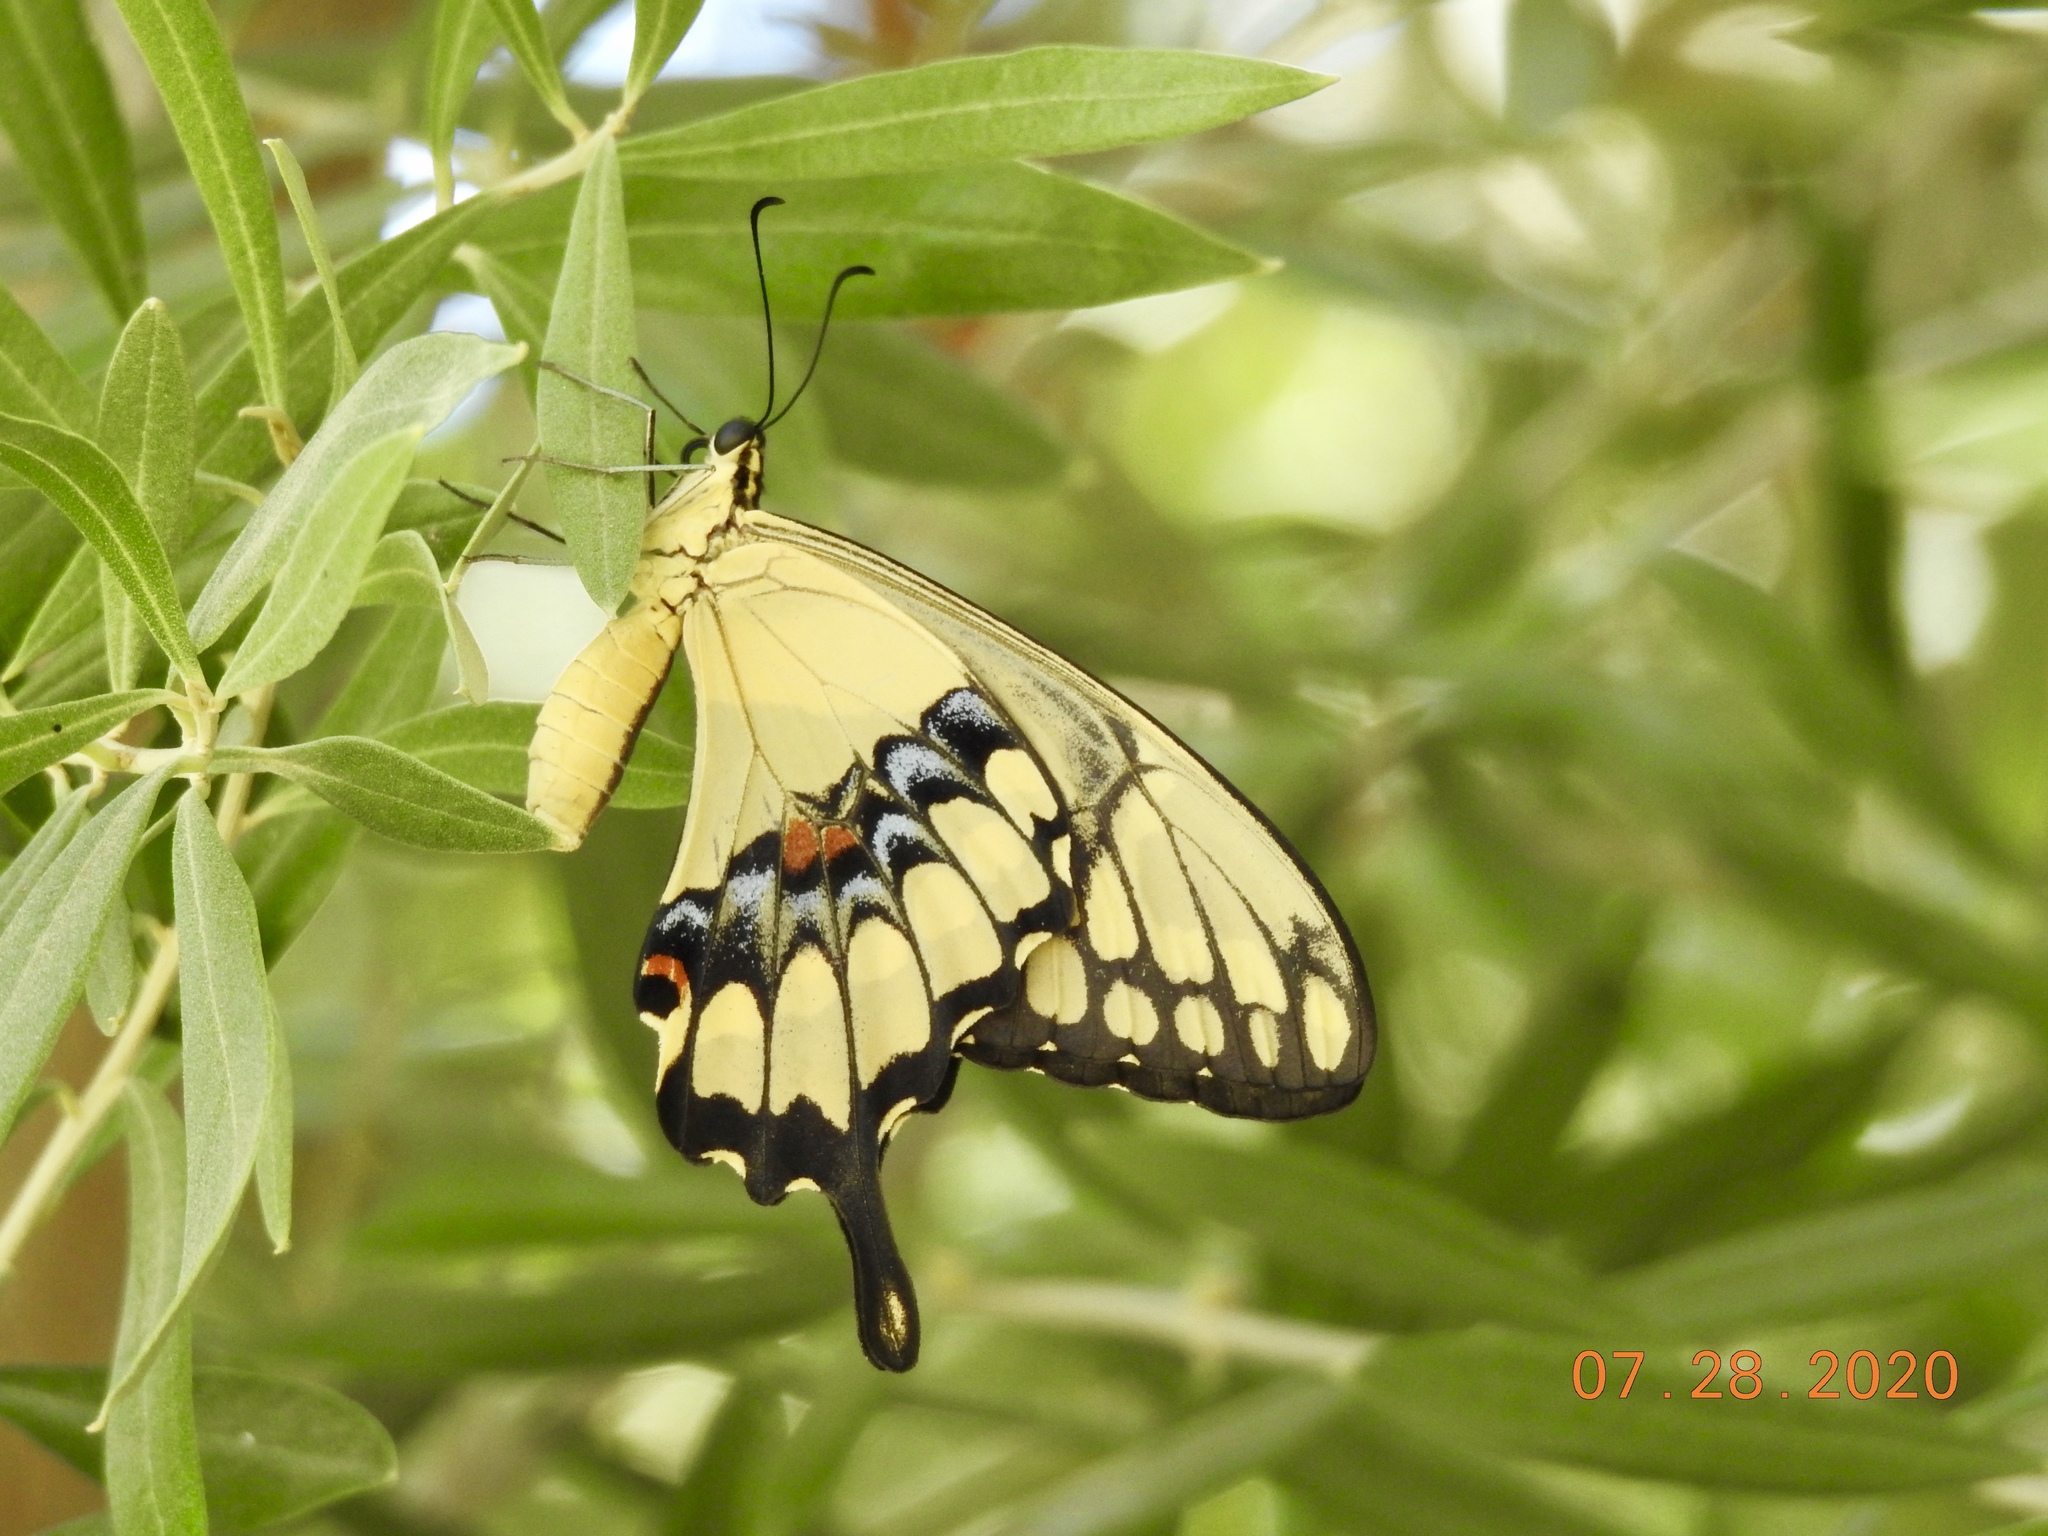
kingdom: Animalia
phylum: Arthropoda
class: Insecta
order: Lepidoptera
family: Papilionidae
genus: Papilio
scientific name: Papilio rumiko
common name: Western giant swallowtail
